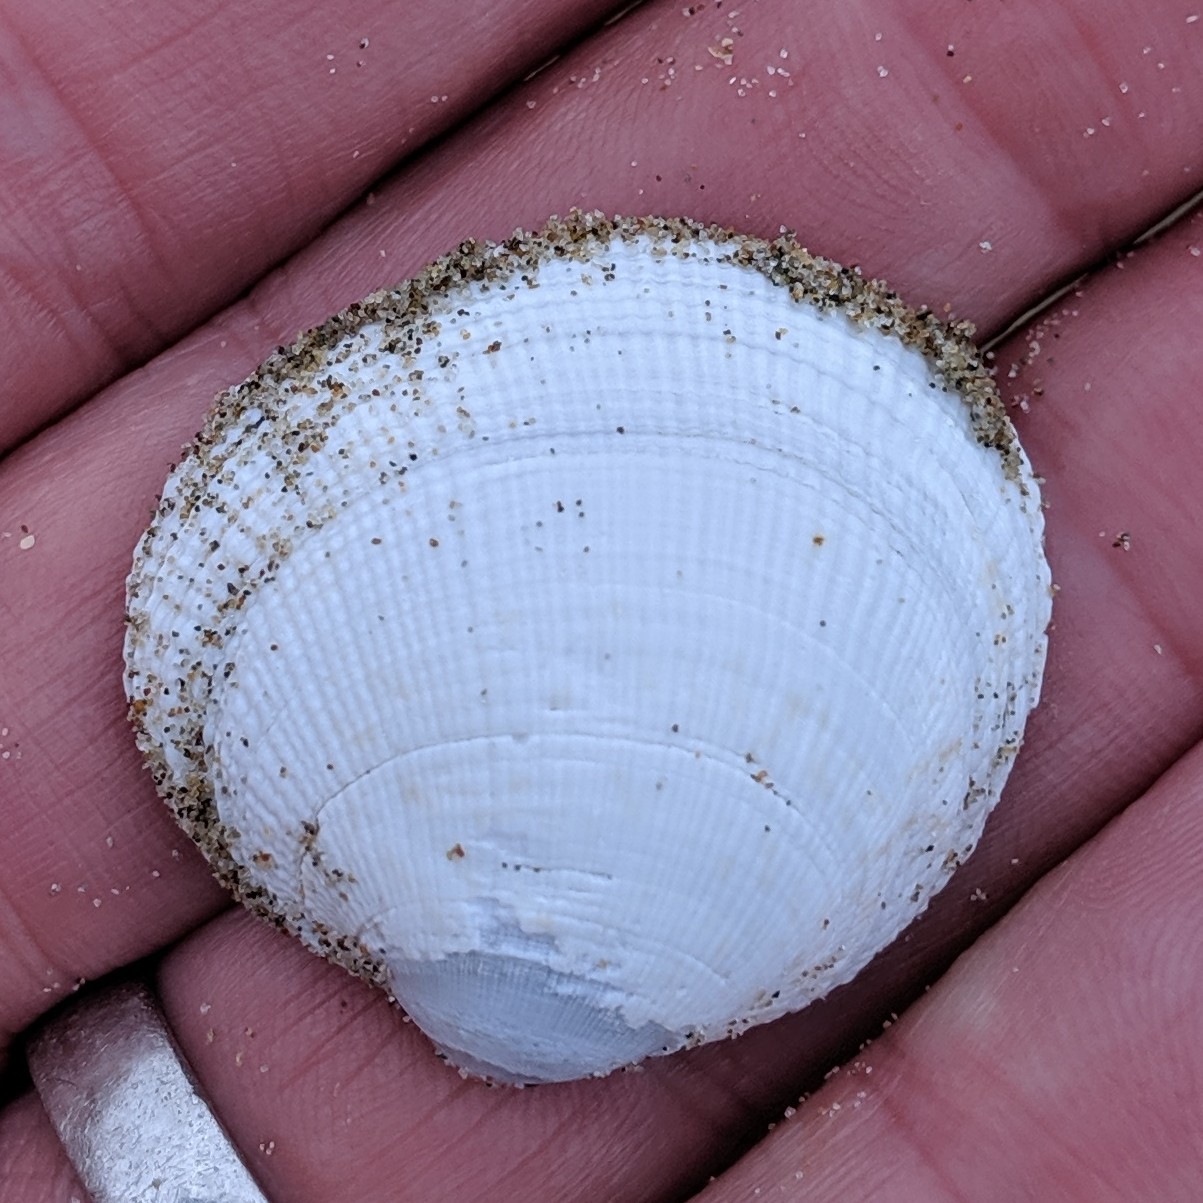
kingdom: Animalia
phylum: Mollusca
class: Bivalvia
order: Venerida
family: Veneridae
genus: Leukoma
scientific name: Leukoma staminea
